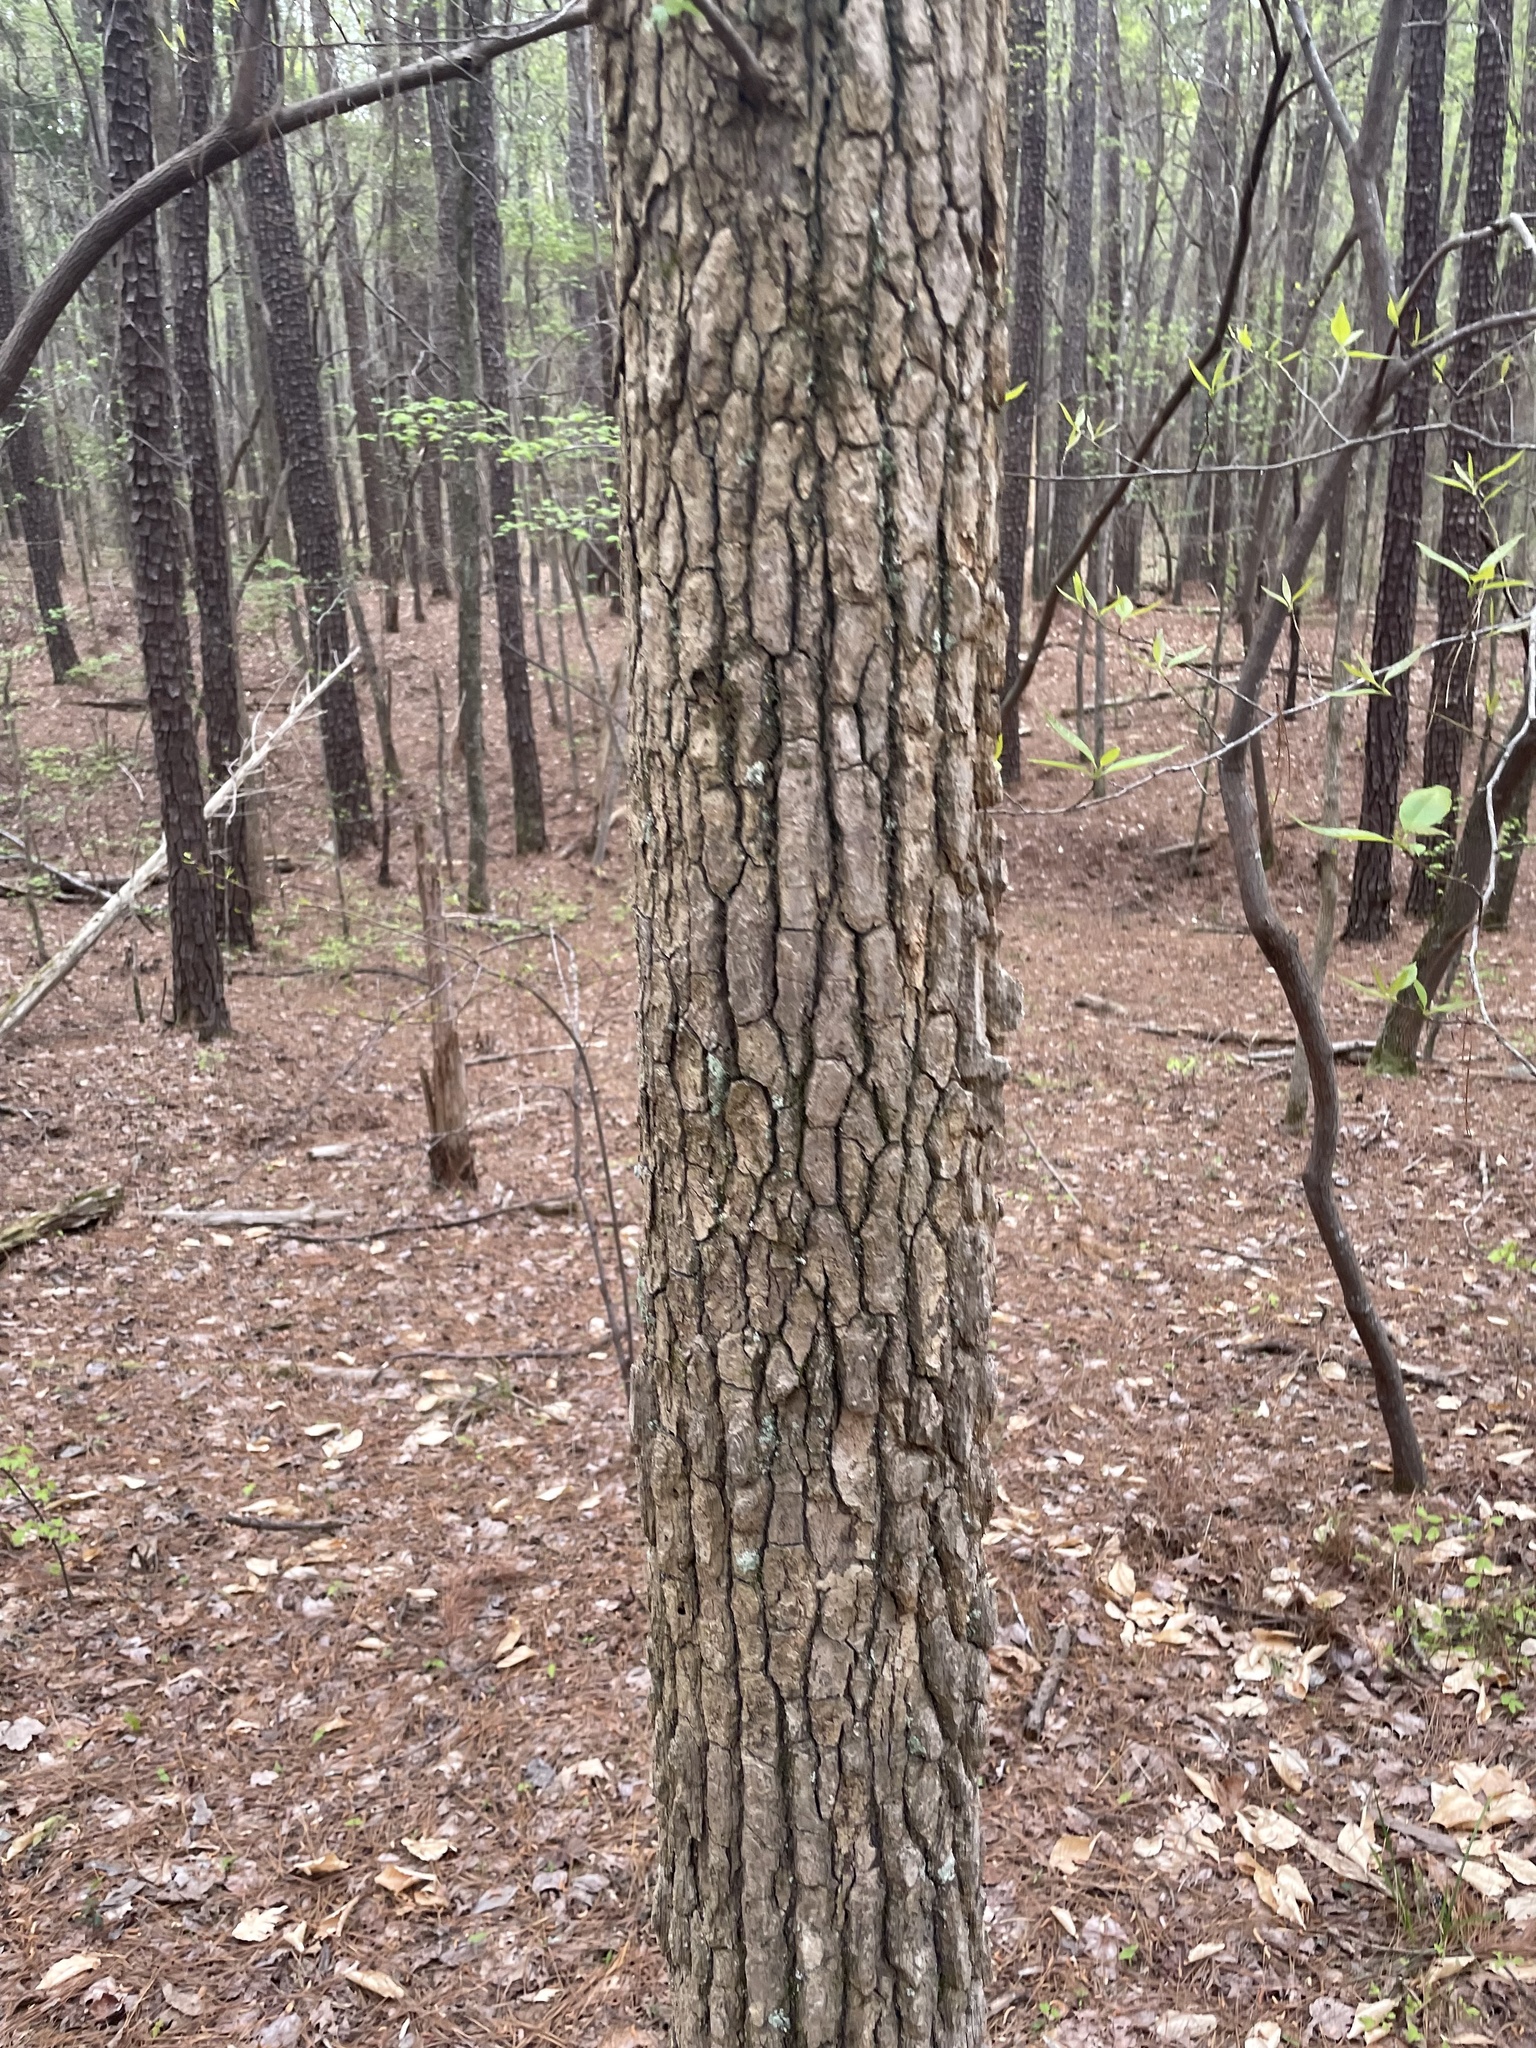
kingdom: Plantae
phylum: Tracheophyta
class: Magnoliopsida
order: Saxifragales
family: Altingiaceae
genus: Liquidambar
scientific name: Liquidambar styraciflua
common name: Sweet gum
